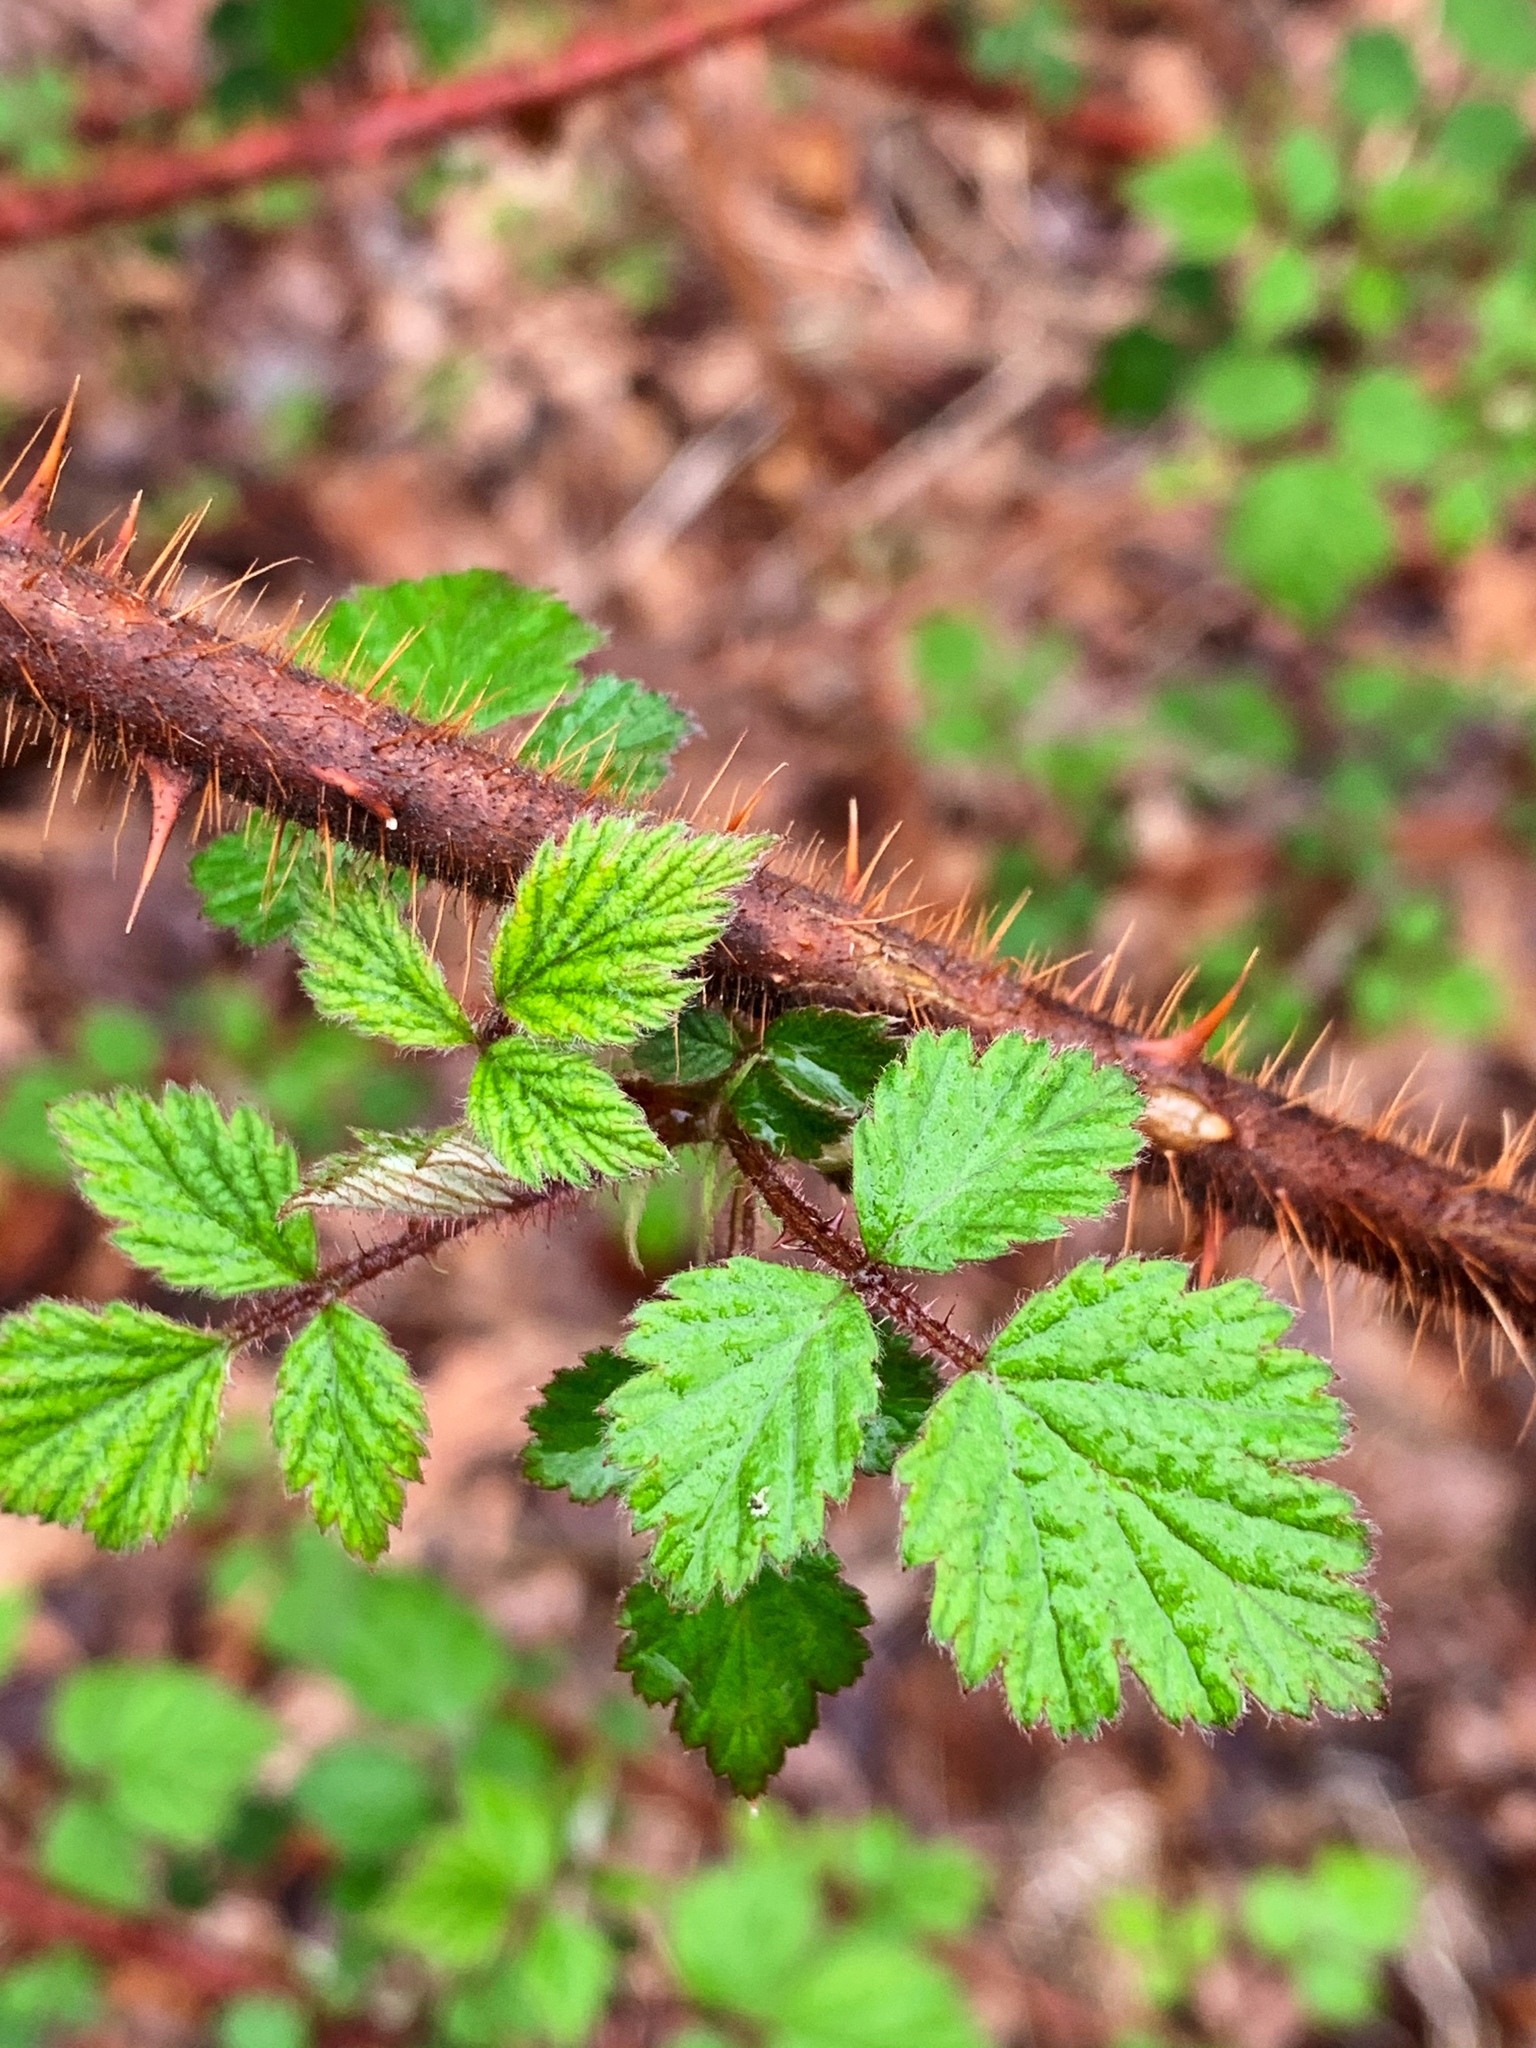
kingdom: Plantae
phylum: Tracheophyta
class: Magnoliopsida
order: Rosales
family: Rosaceae
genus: Rubus
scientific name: Rubus phoenicolasius
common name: Japanese wineberry
